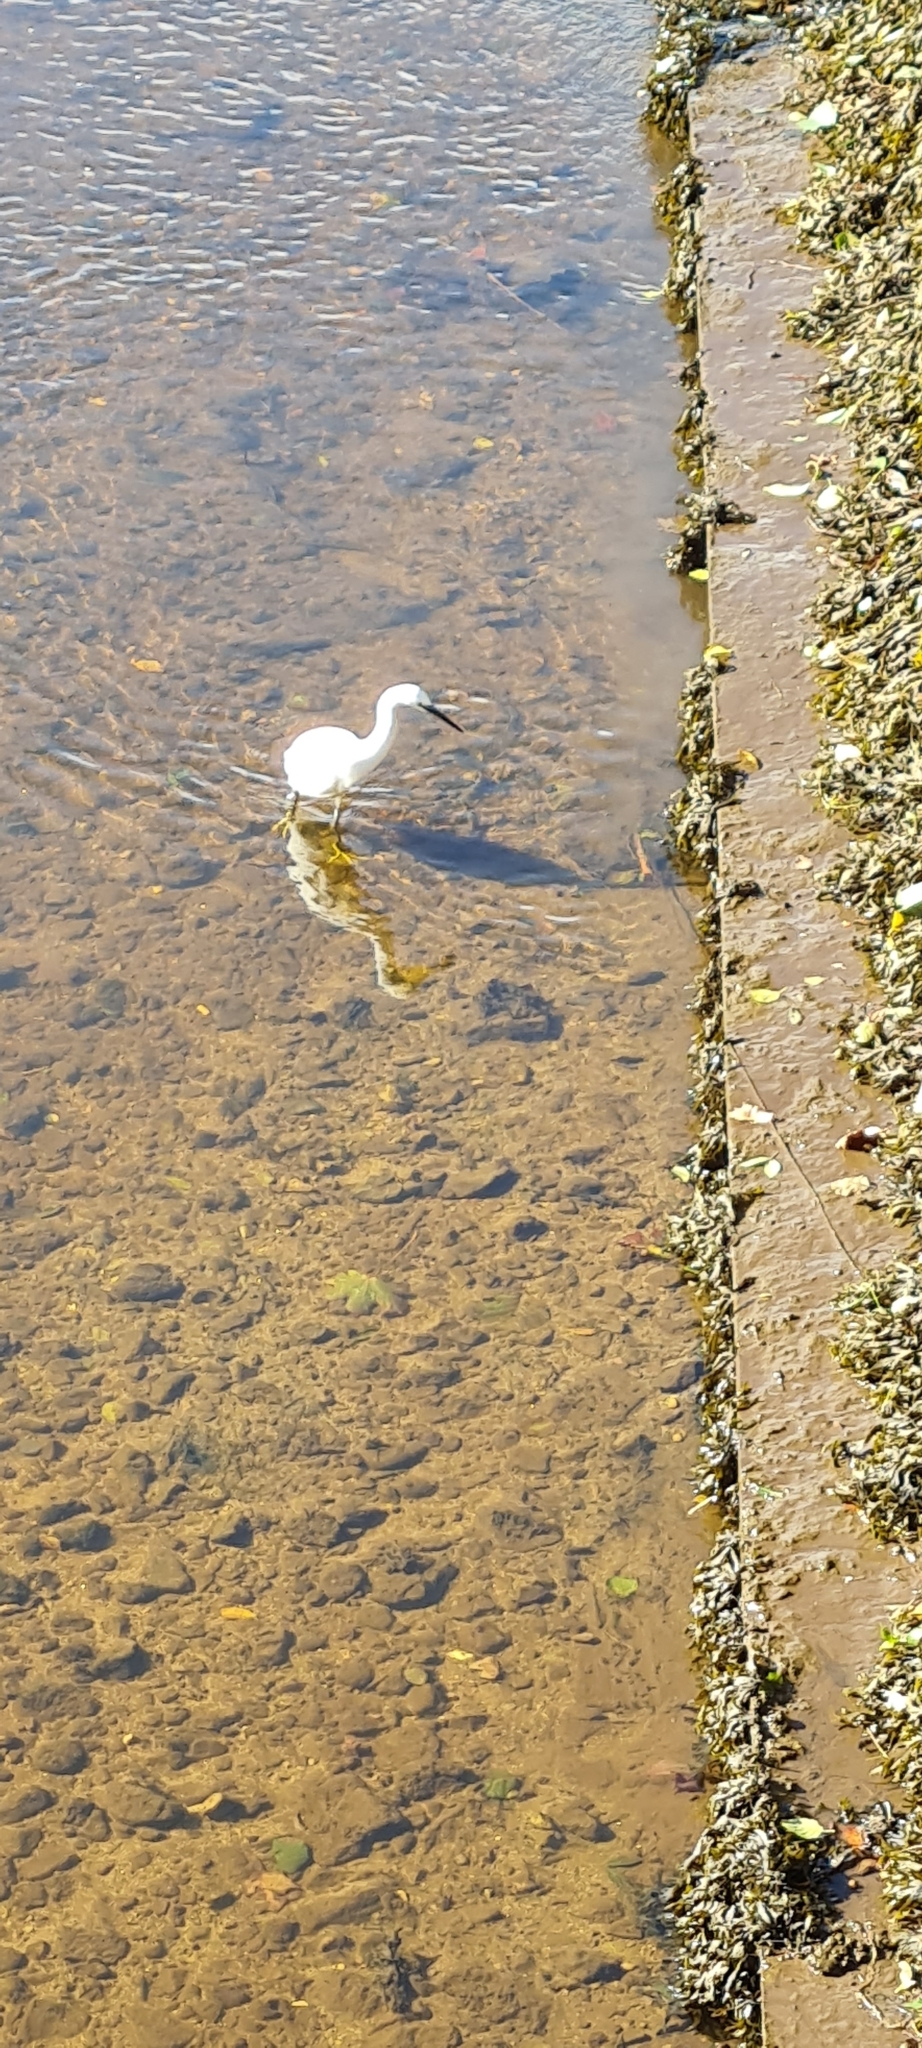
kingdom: Animalia
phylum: Chordata
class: Aves
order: Pelecaniformes
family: Ardeidae
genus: Egretta
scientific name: Egretta garzetta
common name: Little egret
